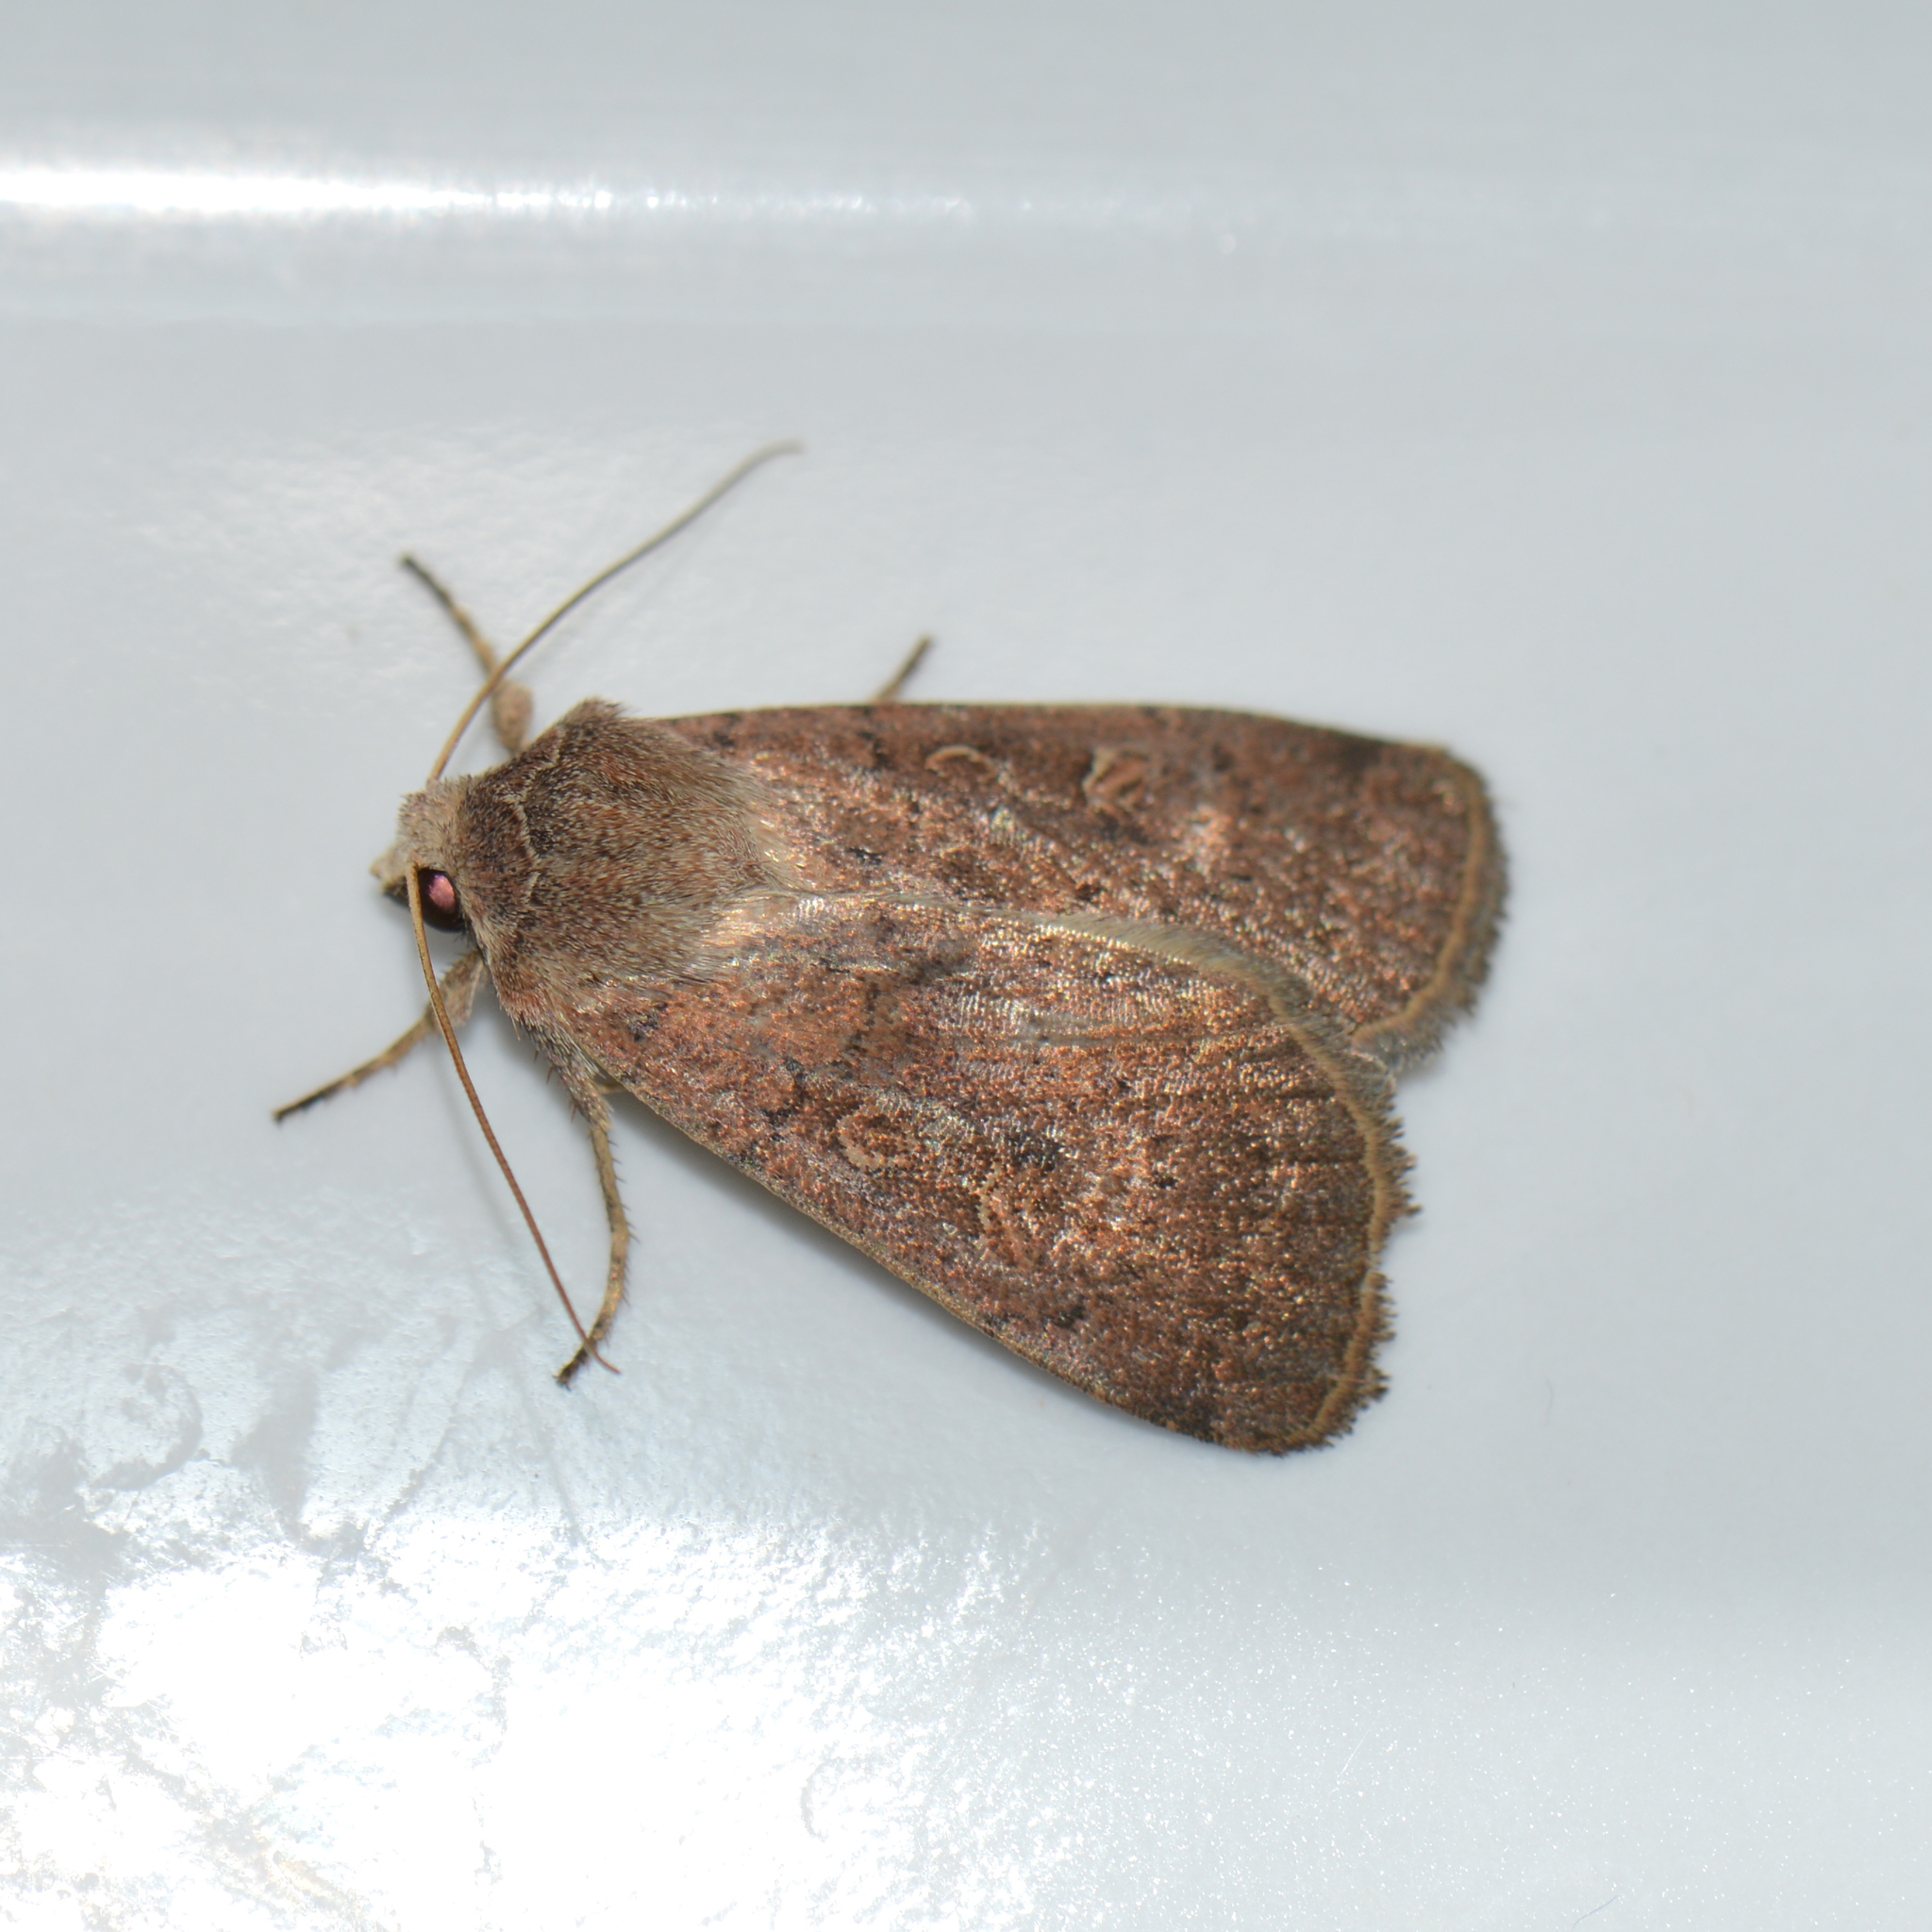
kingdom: Animalia
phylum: Arthropoda
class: Insecta
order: Lepidoptera
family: Noctuidae
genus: Xestia
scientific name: Xestia xanthographa
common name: Square-spot rustic
